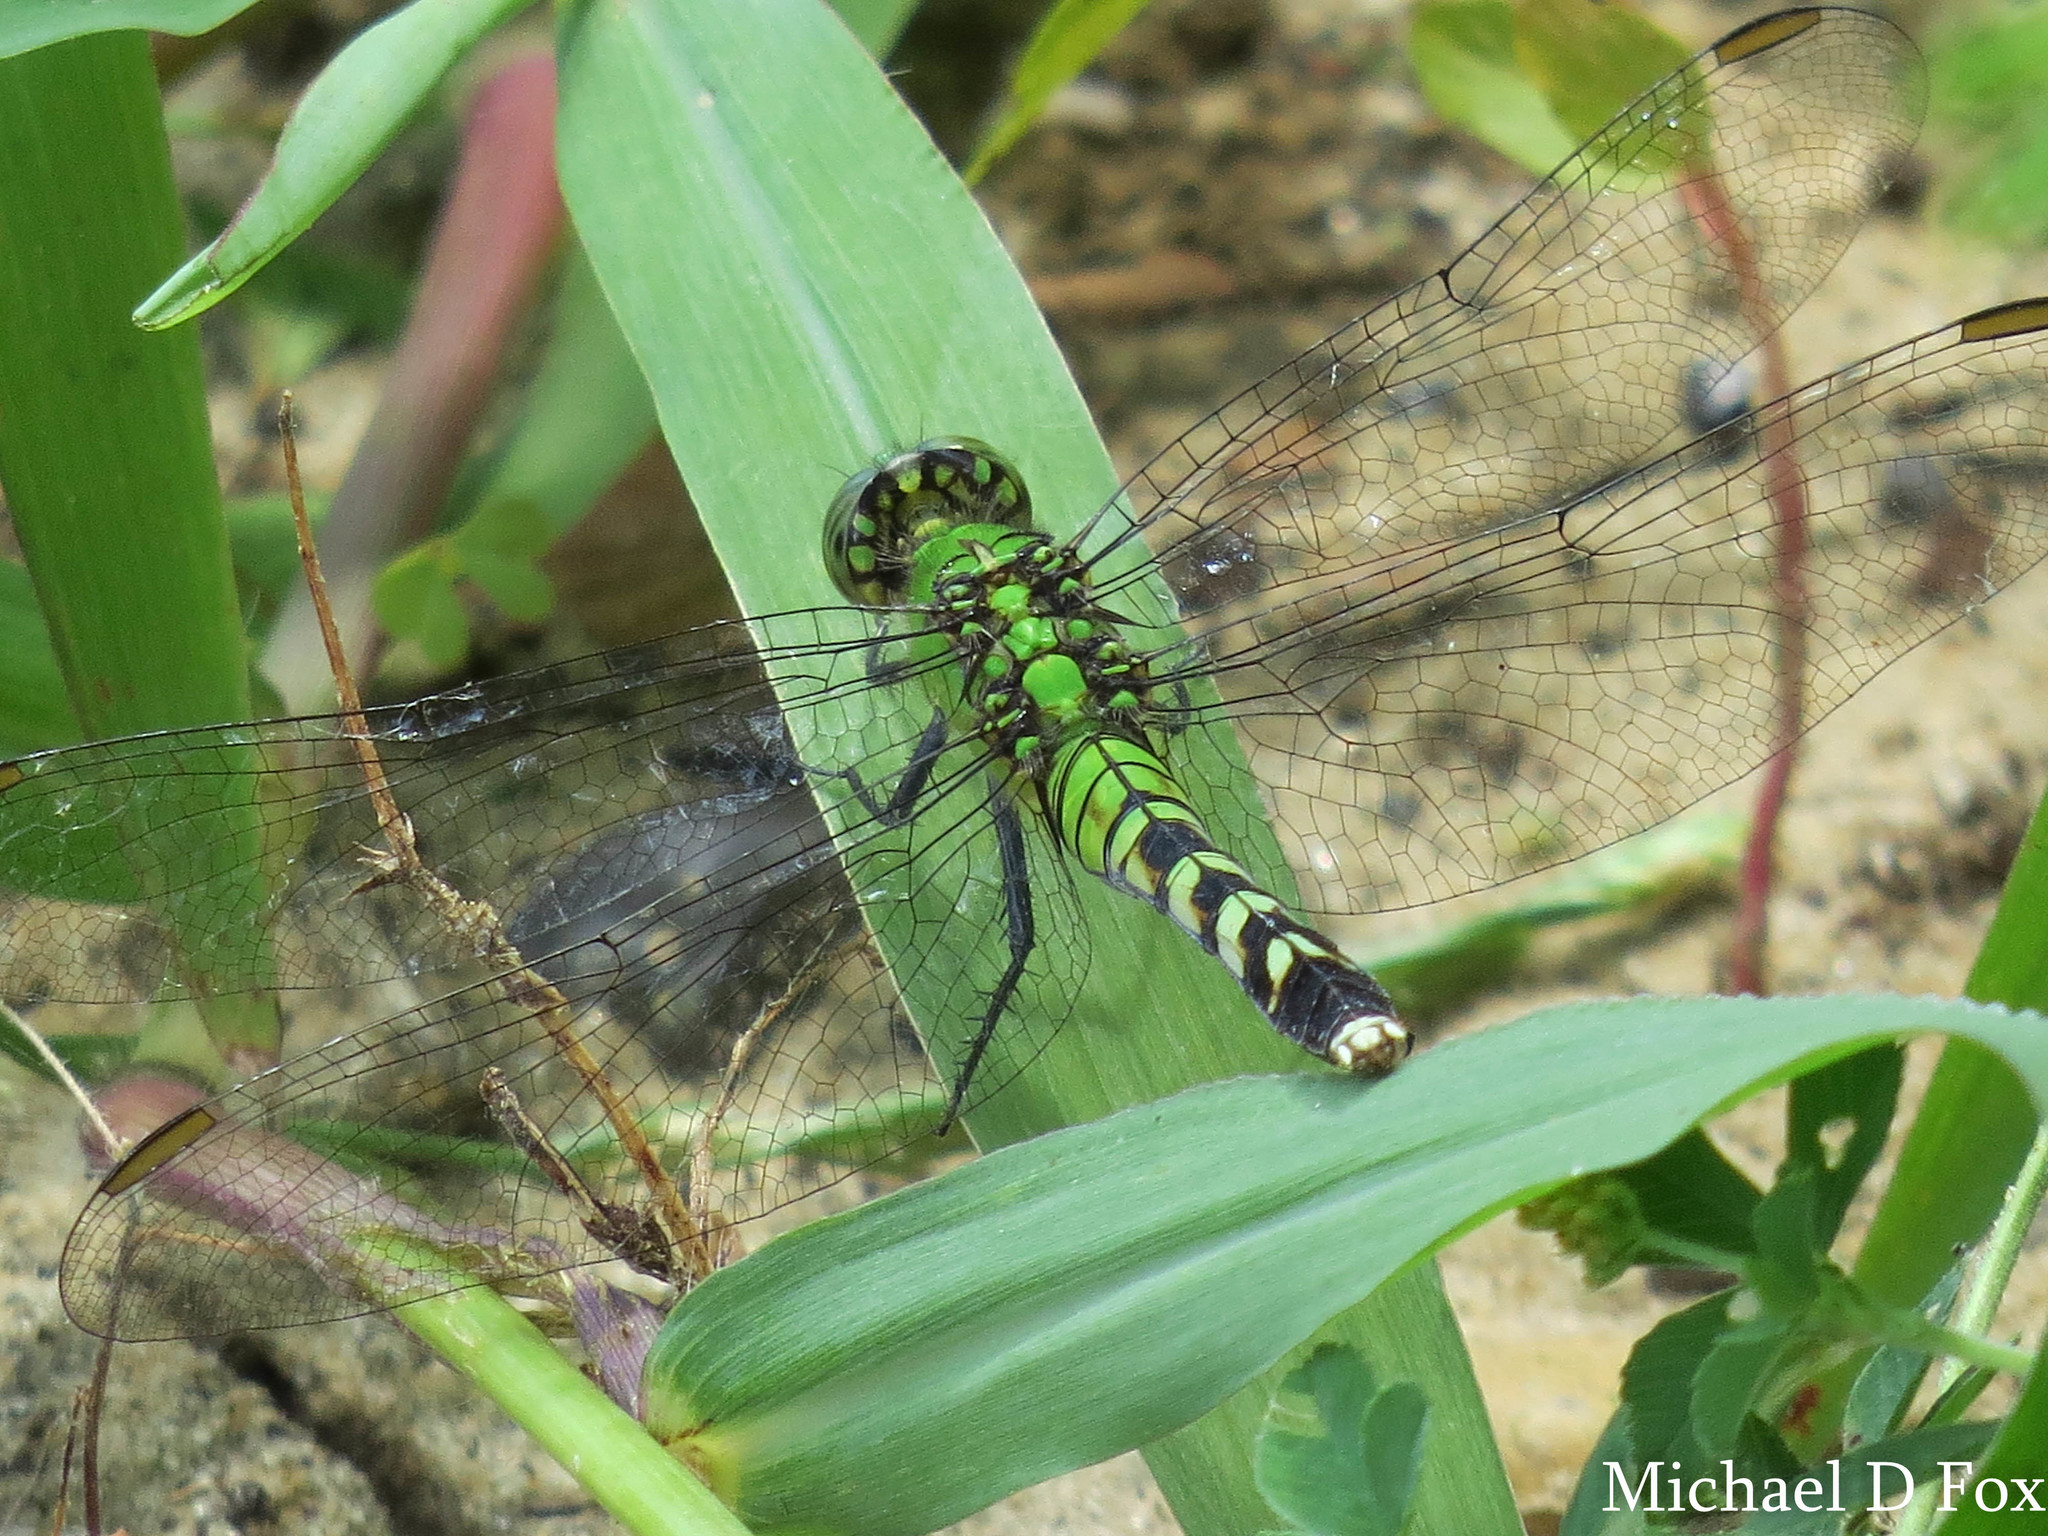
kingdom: Animalia
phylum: Arthropoda
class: Insecta
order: Odonata
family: Libellulidae
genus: Erythemis
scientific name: Erythemis simplicicollis
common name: Eastern pondhawk
